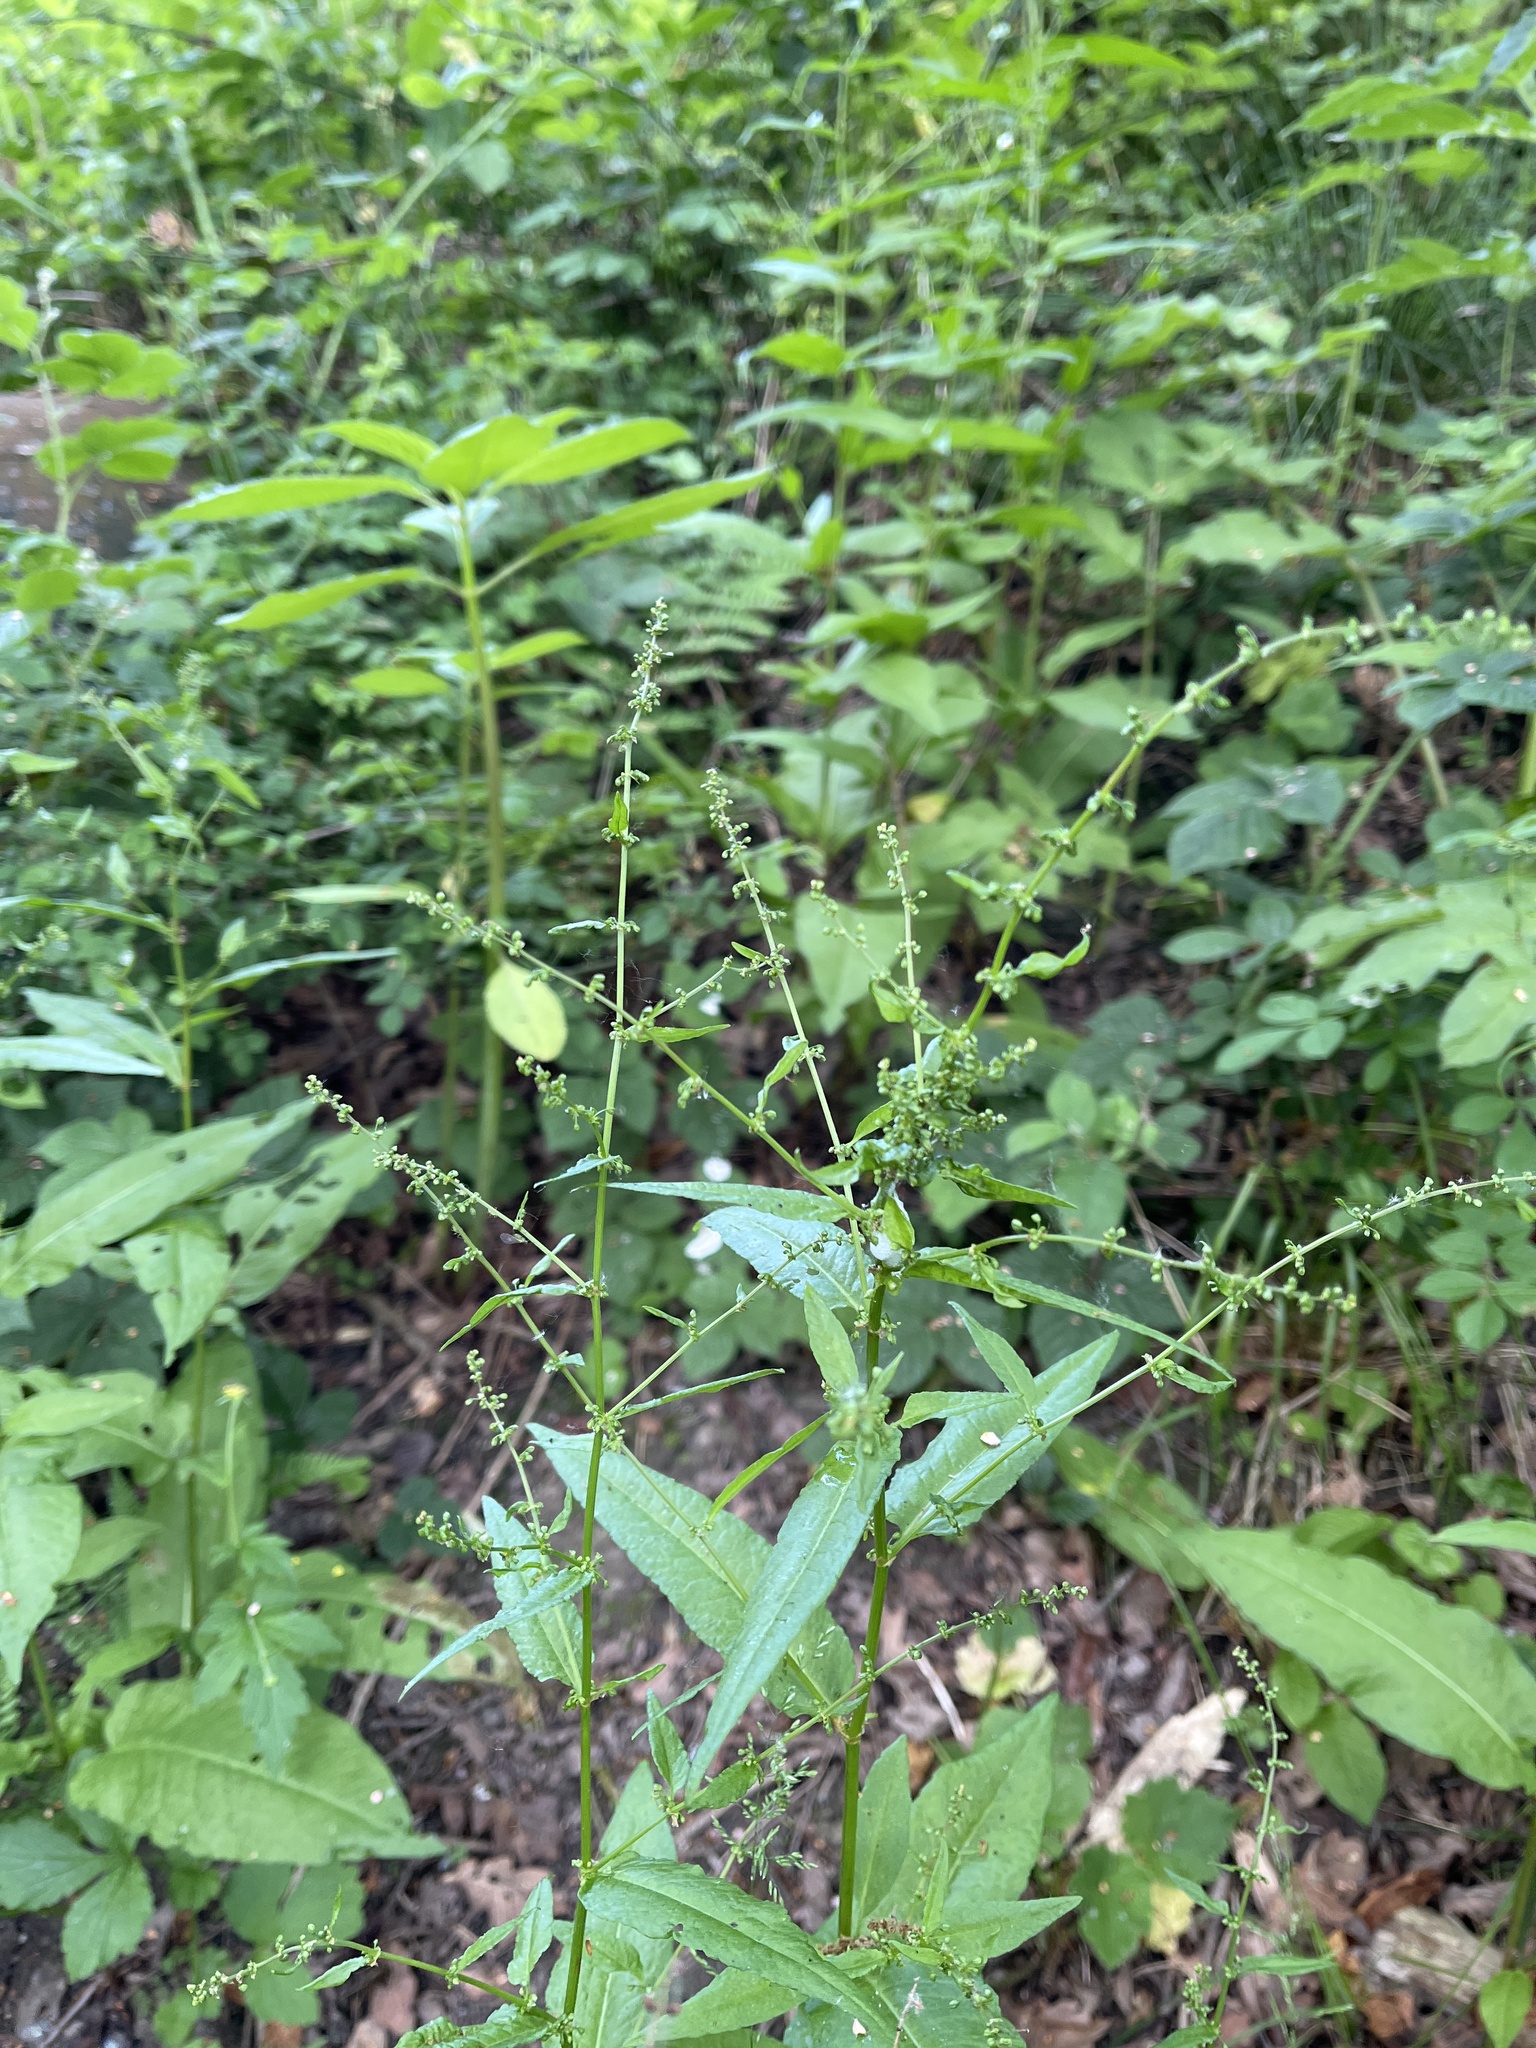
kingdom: Plantae
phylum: Tracheophyta
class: Magnoliopsida
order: Caryophyllales
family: Polygonaceae
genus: Rumex
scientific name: Rumex sanguineus
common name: Wood dock
